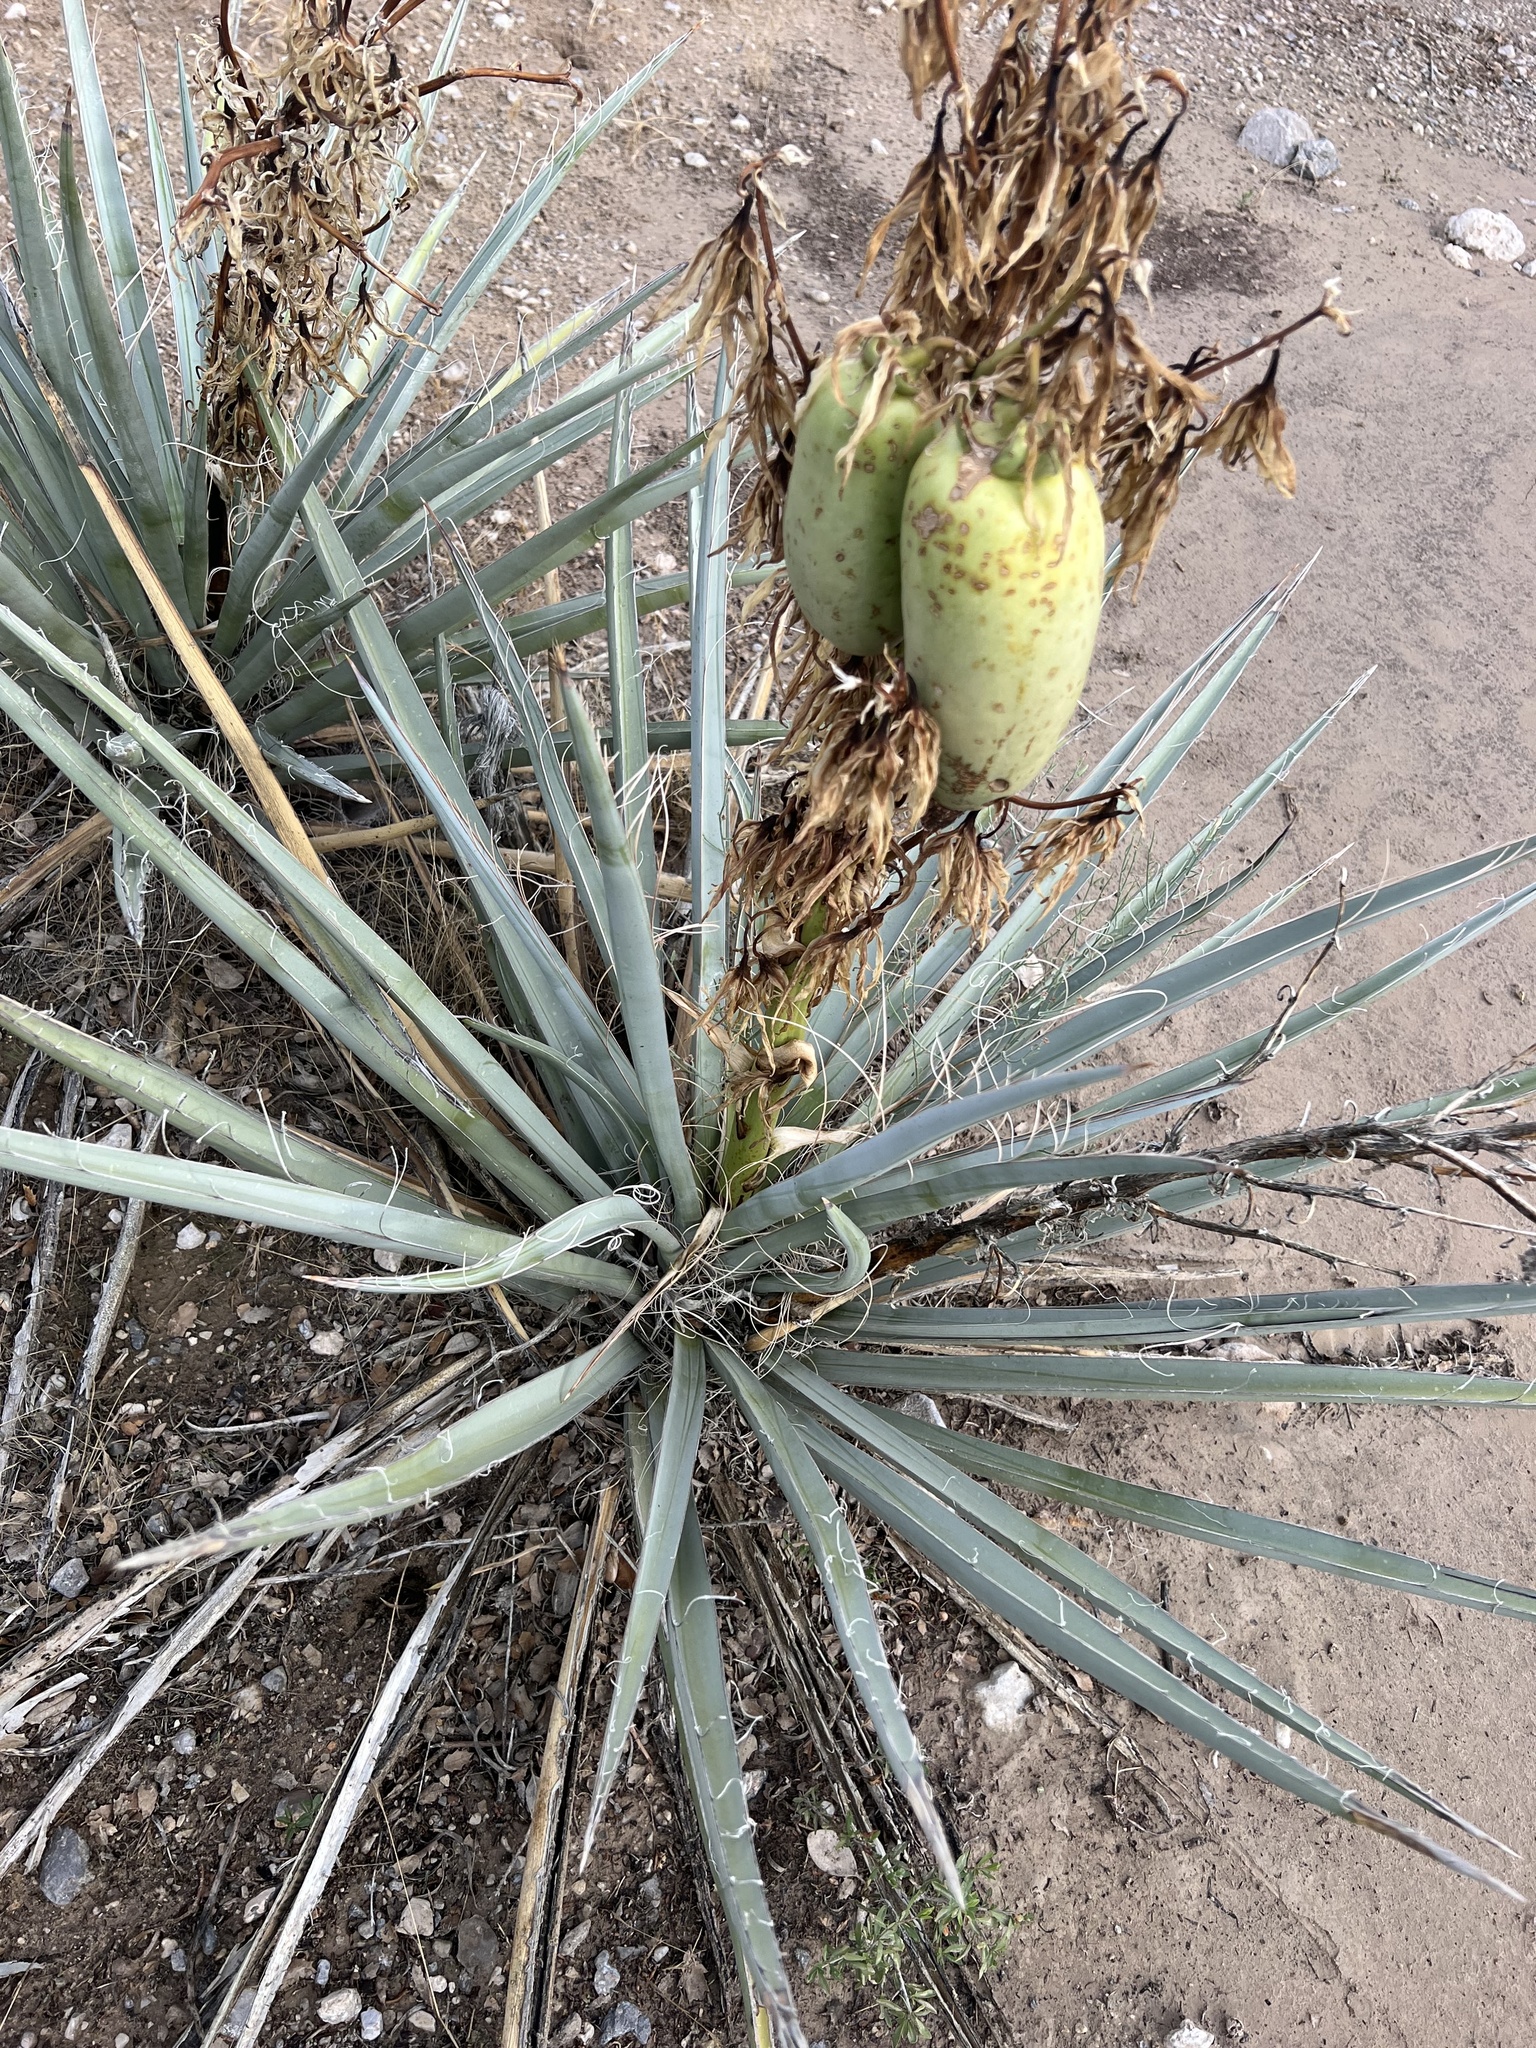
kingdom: Plantae
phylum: Tracheophyta
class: Liliopsida
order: Asparagales
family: Asparagaceae
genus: Yucca
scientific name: Yucca baccata
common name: Banana yucca
